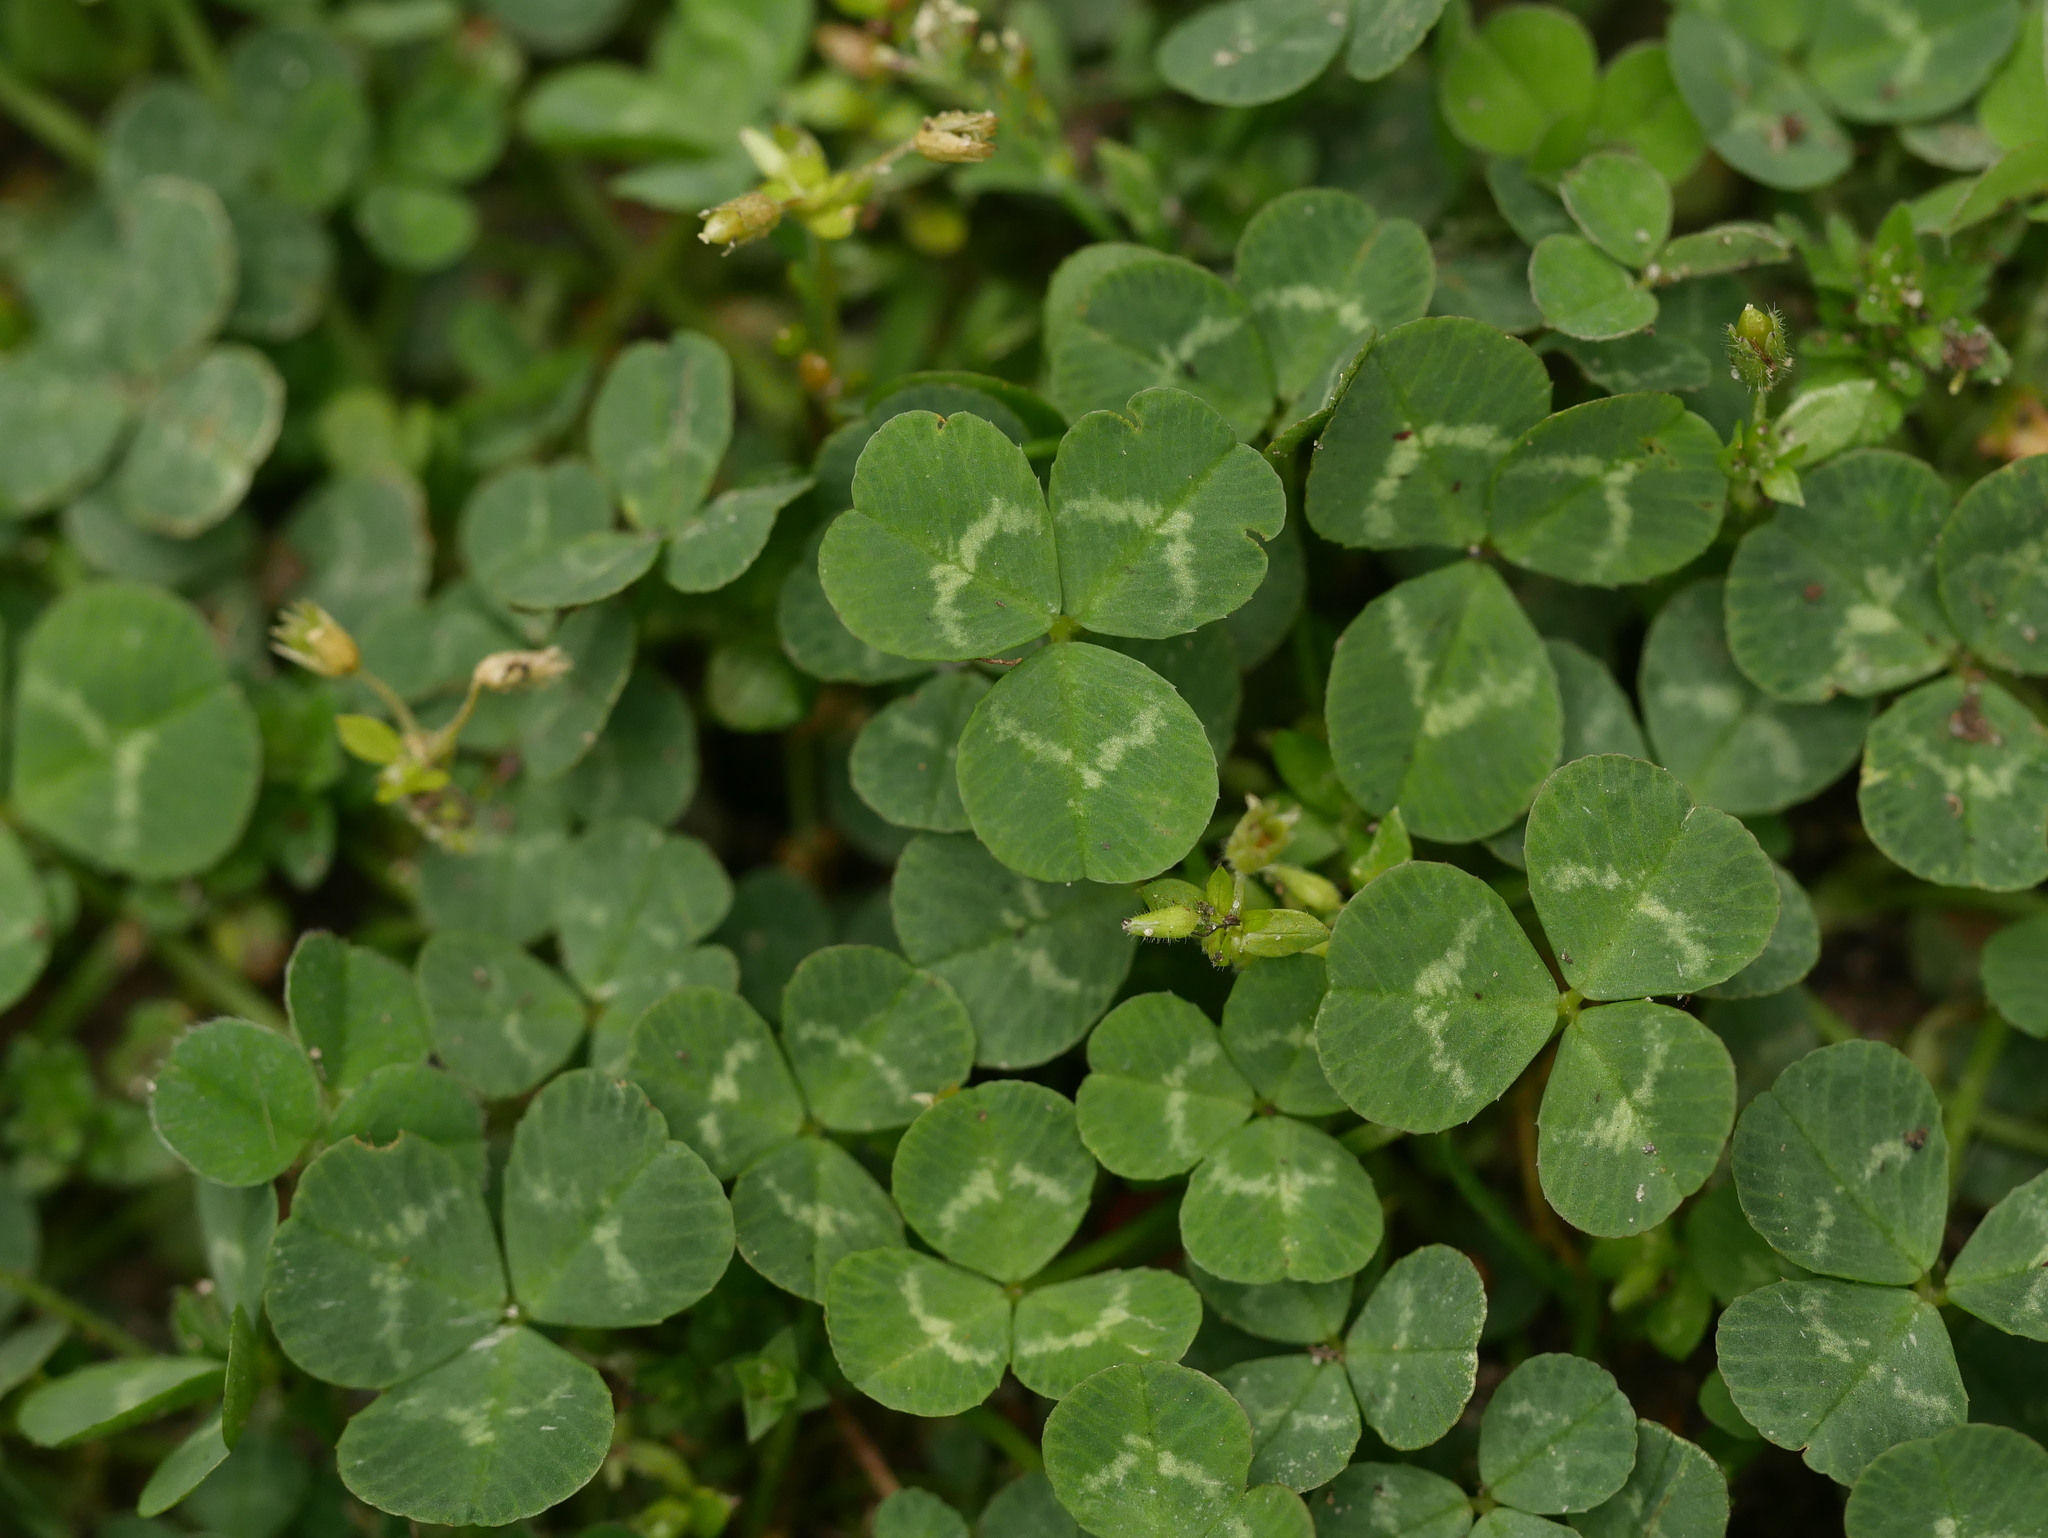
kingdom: Plantae
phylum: Tracheophyta
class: Magnoliopsida
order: Fabales
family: Fabaceae
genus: Trifolium
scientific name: Trifolium repens
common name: White clover
